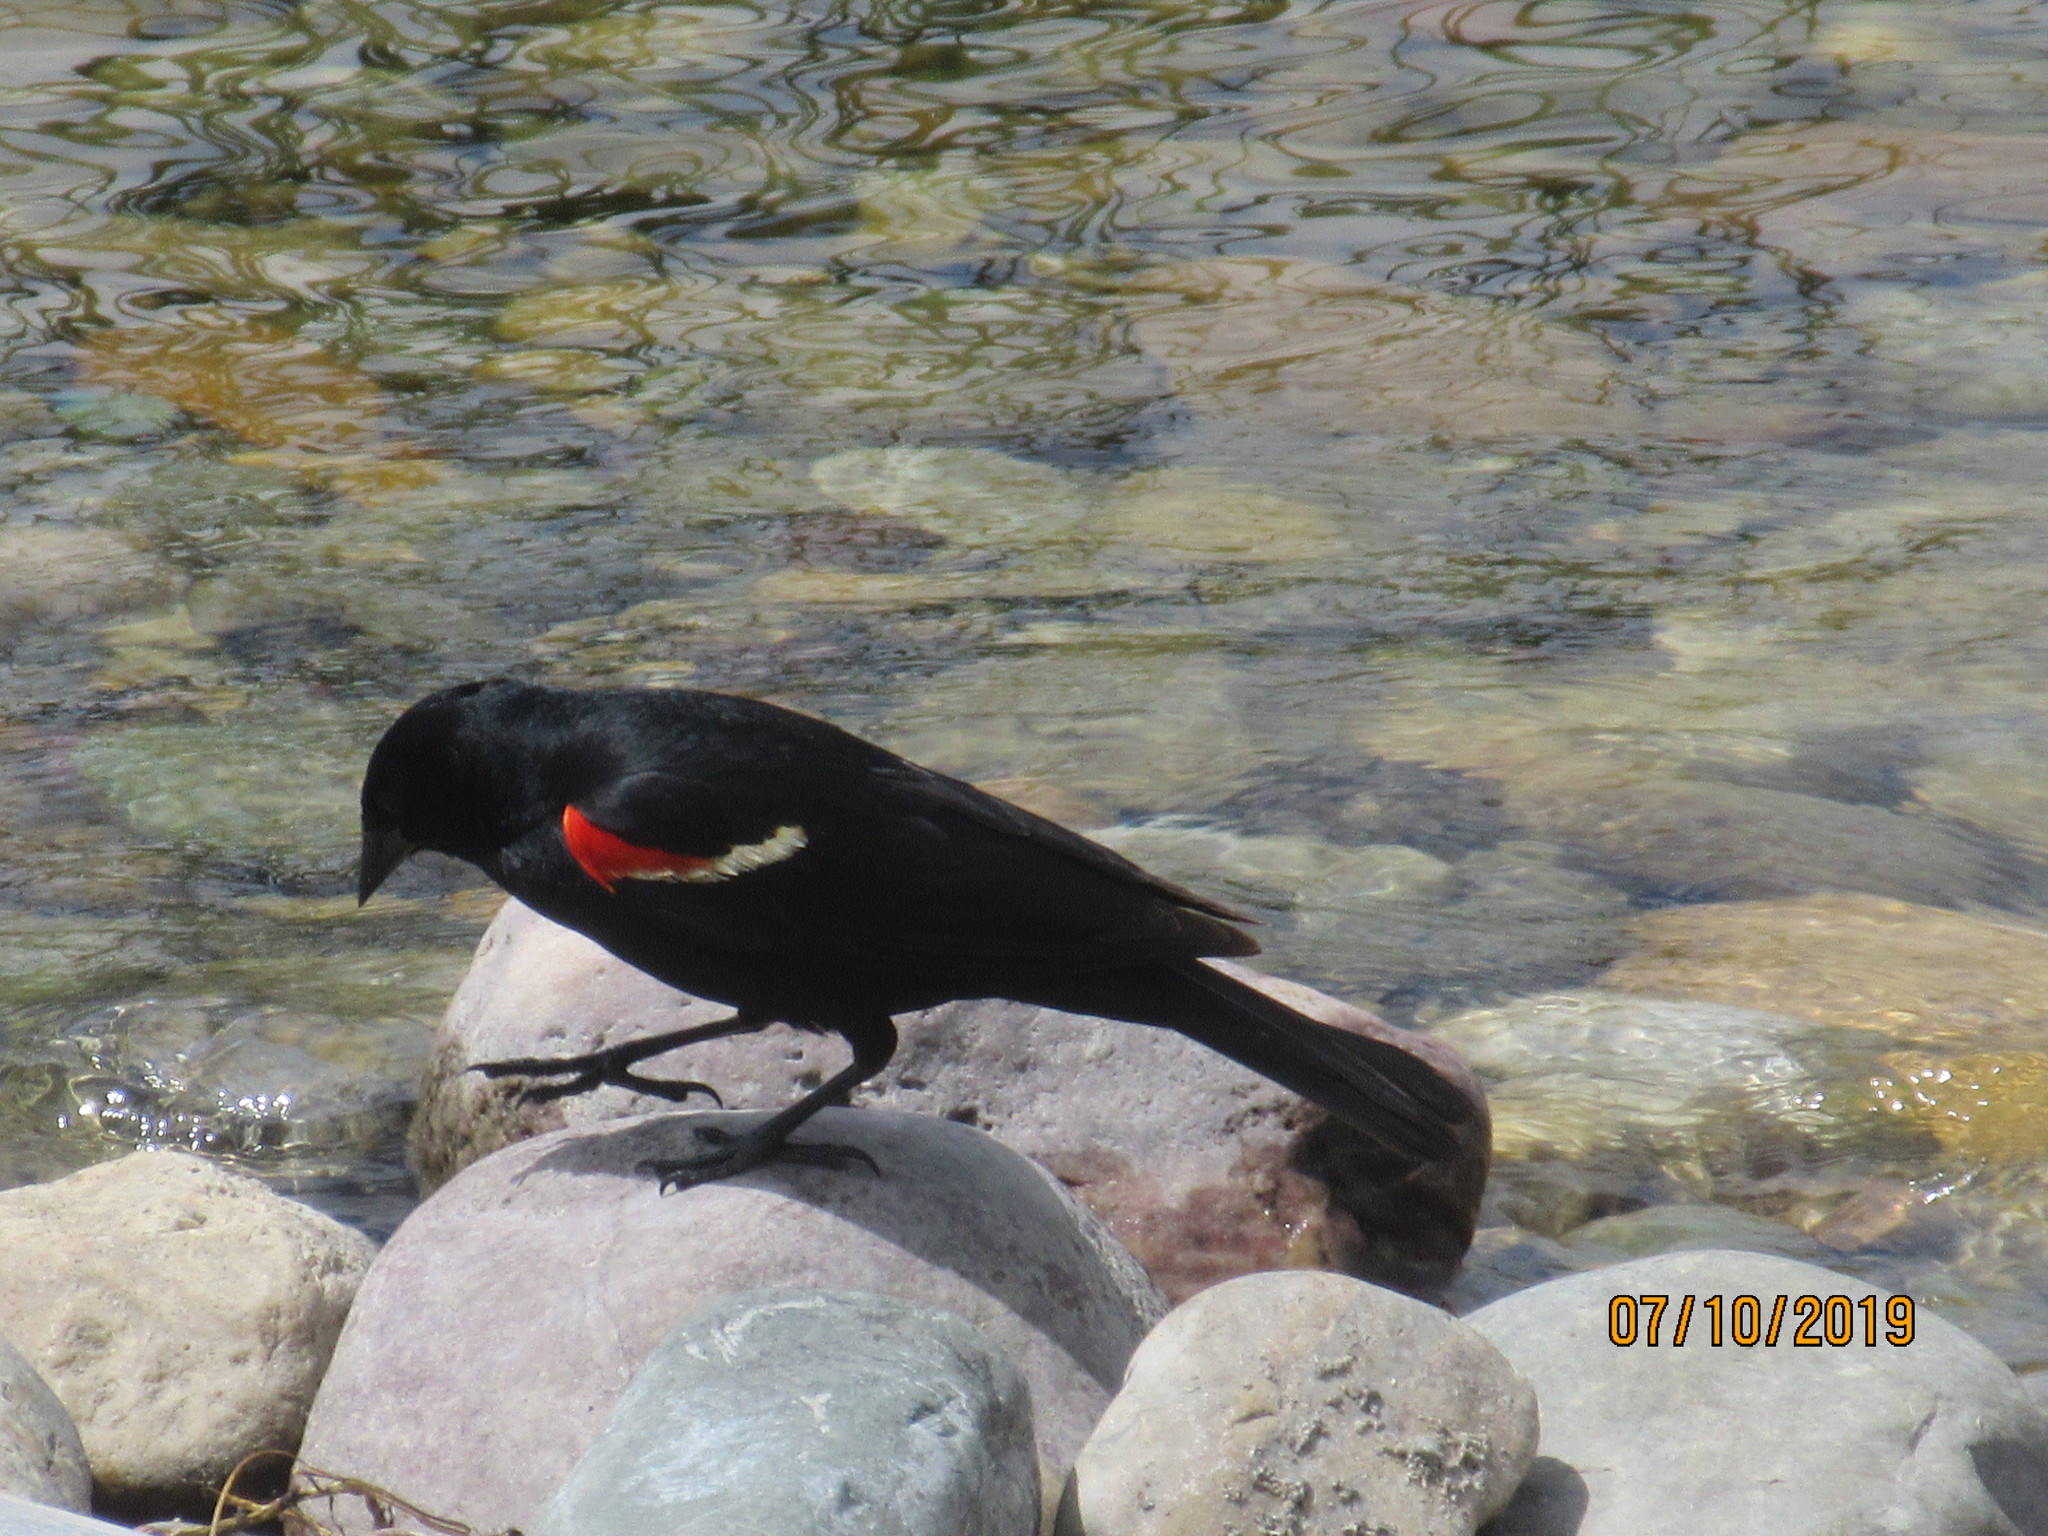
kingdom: Animalia
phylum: Chordata
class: Aves
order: Passeriformes
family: Icteridae
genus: Agelaius
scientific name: Agelaius phoeniceus
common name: Red-winged blackbird
